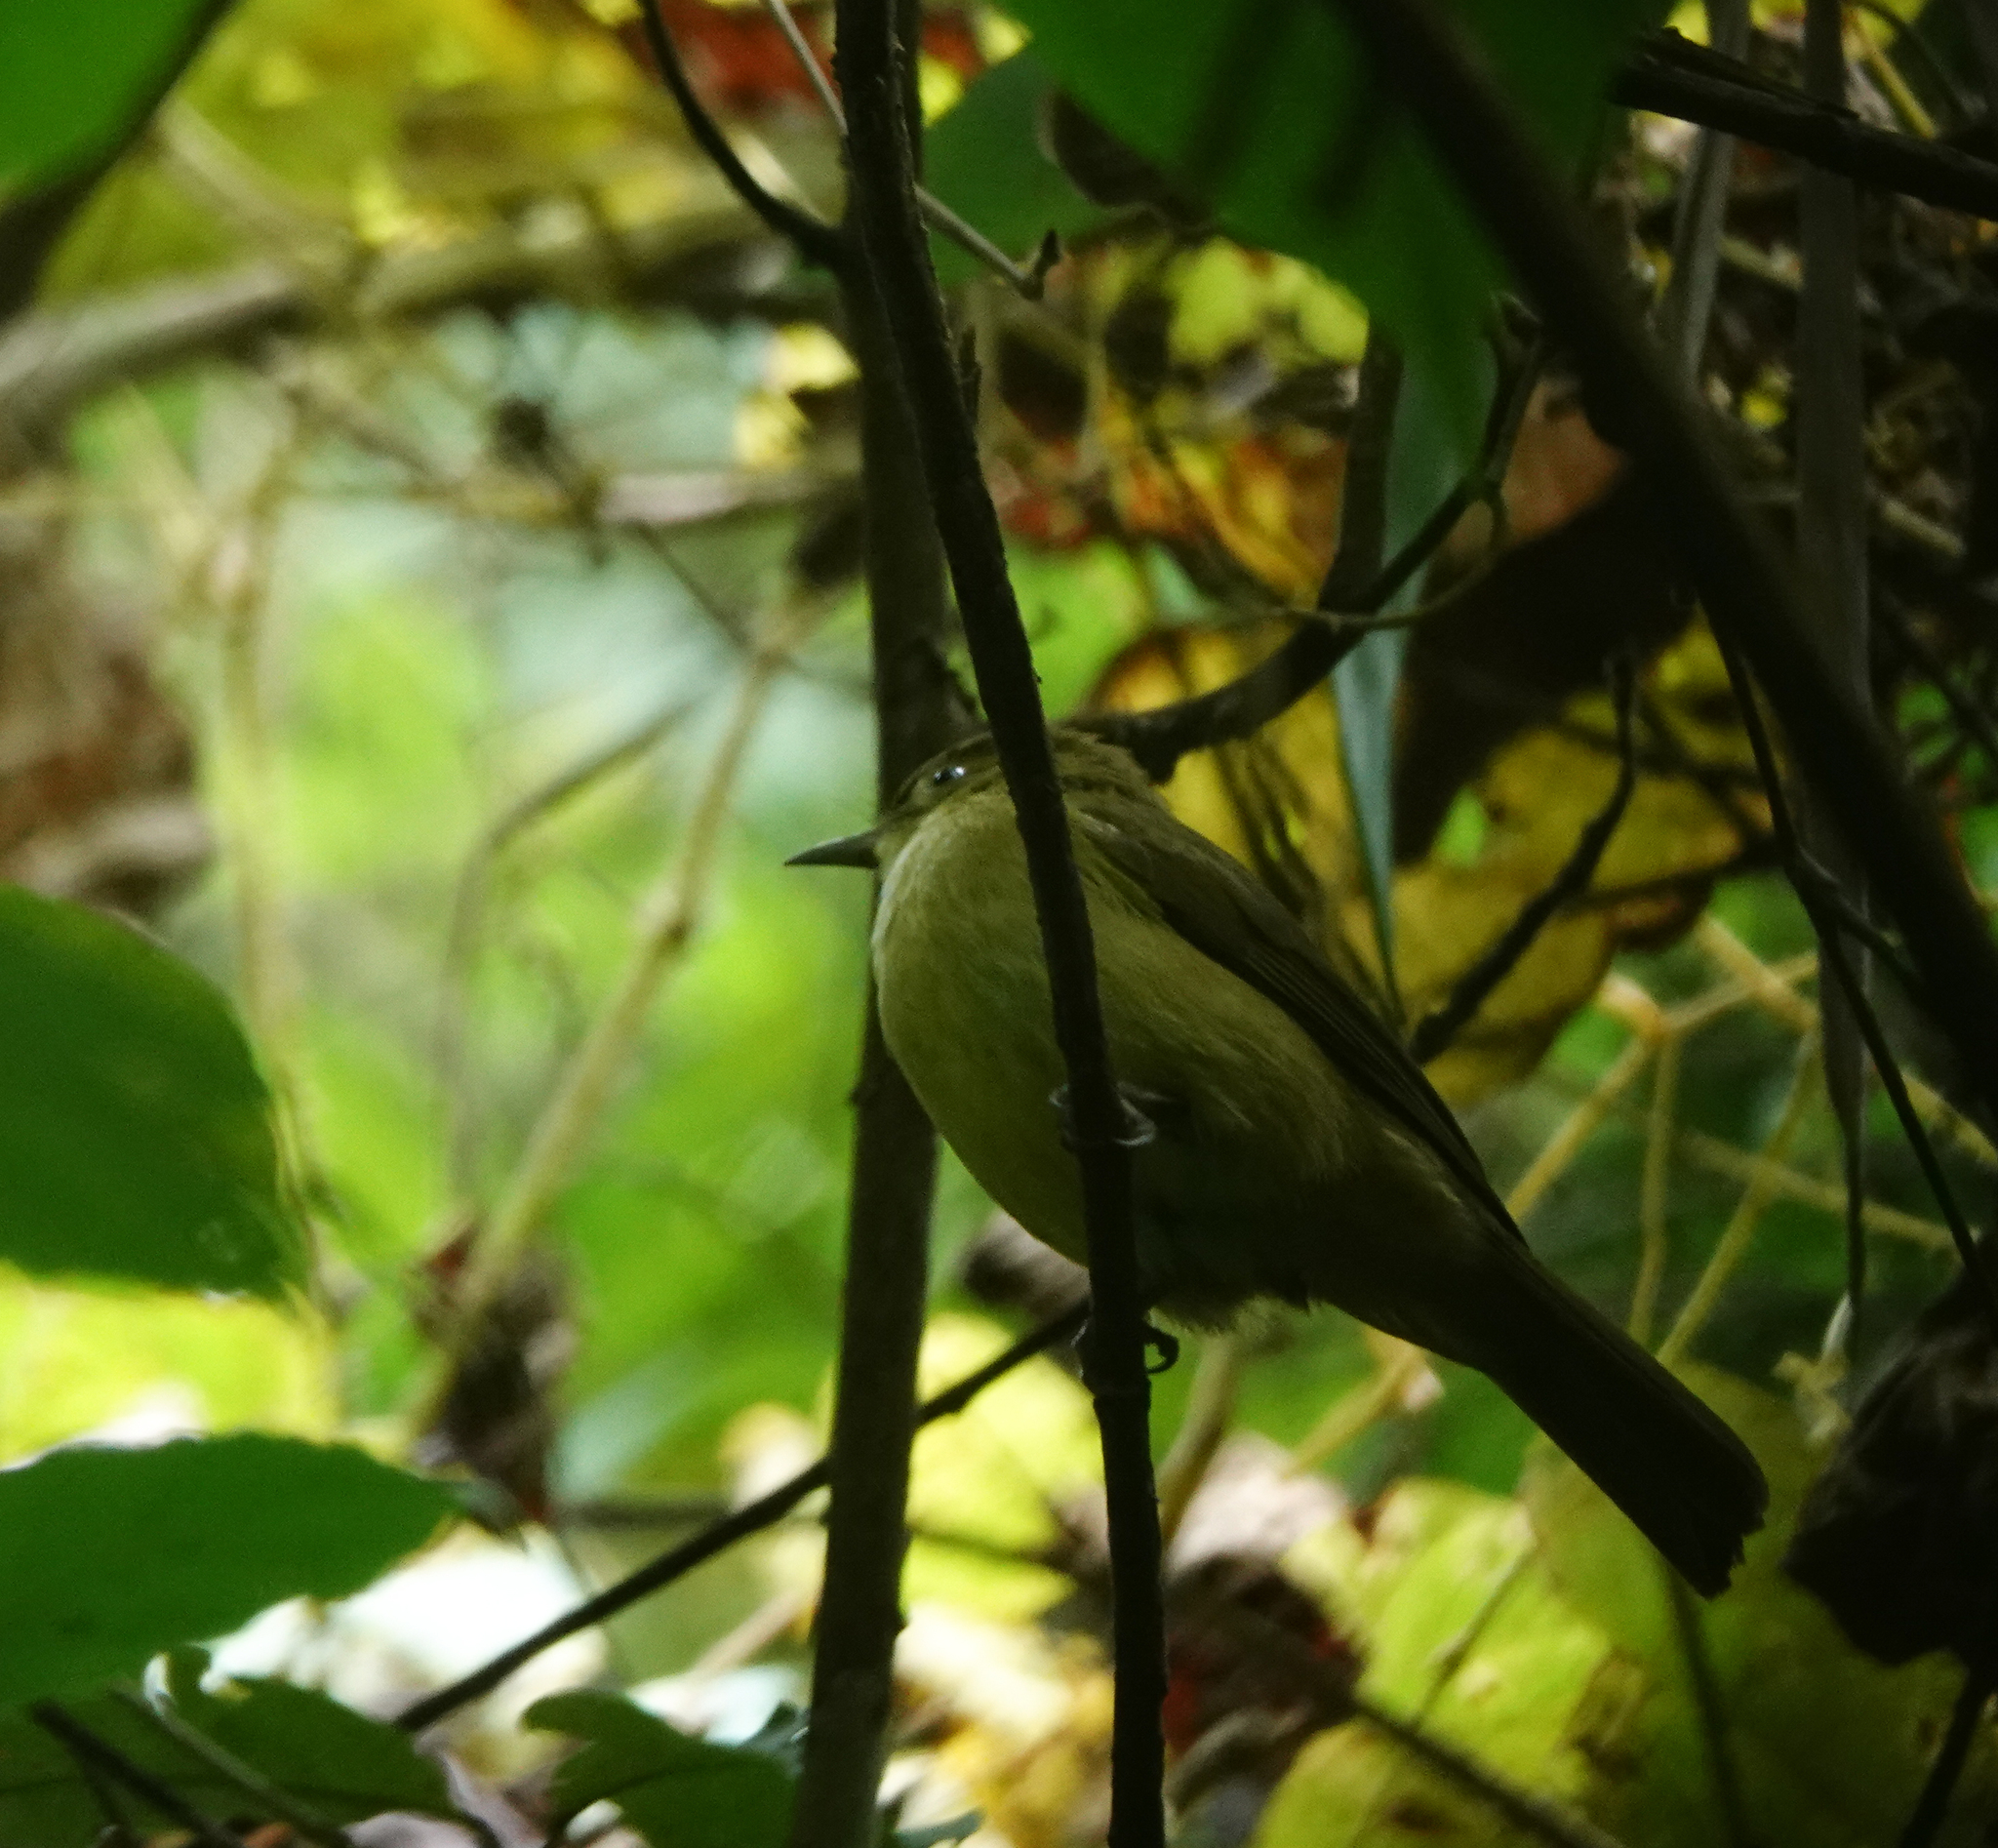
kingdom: Animalia
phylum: Chordata
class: Aves
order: Passeriformes
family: Pycnonotidae
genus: Iole
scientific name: Iole virescens
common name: Olive bulbul
